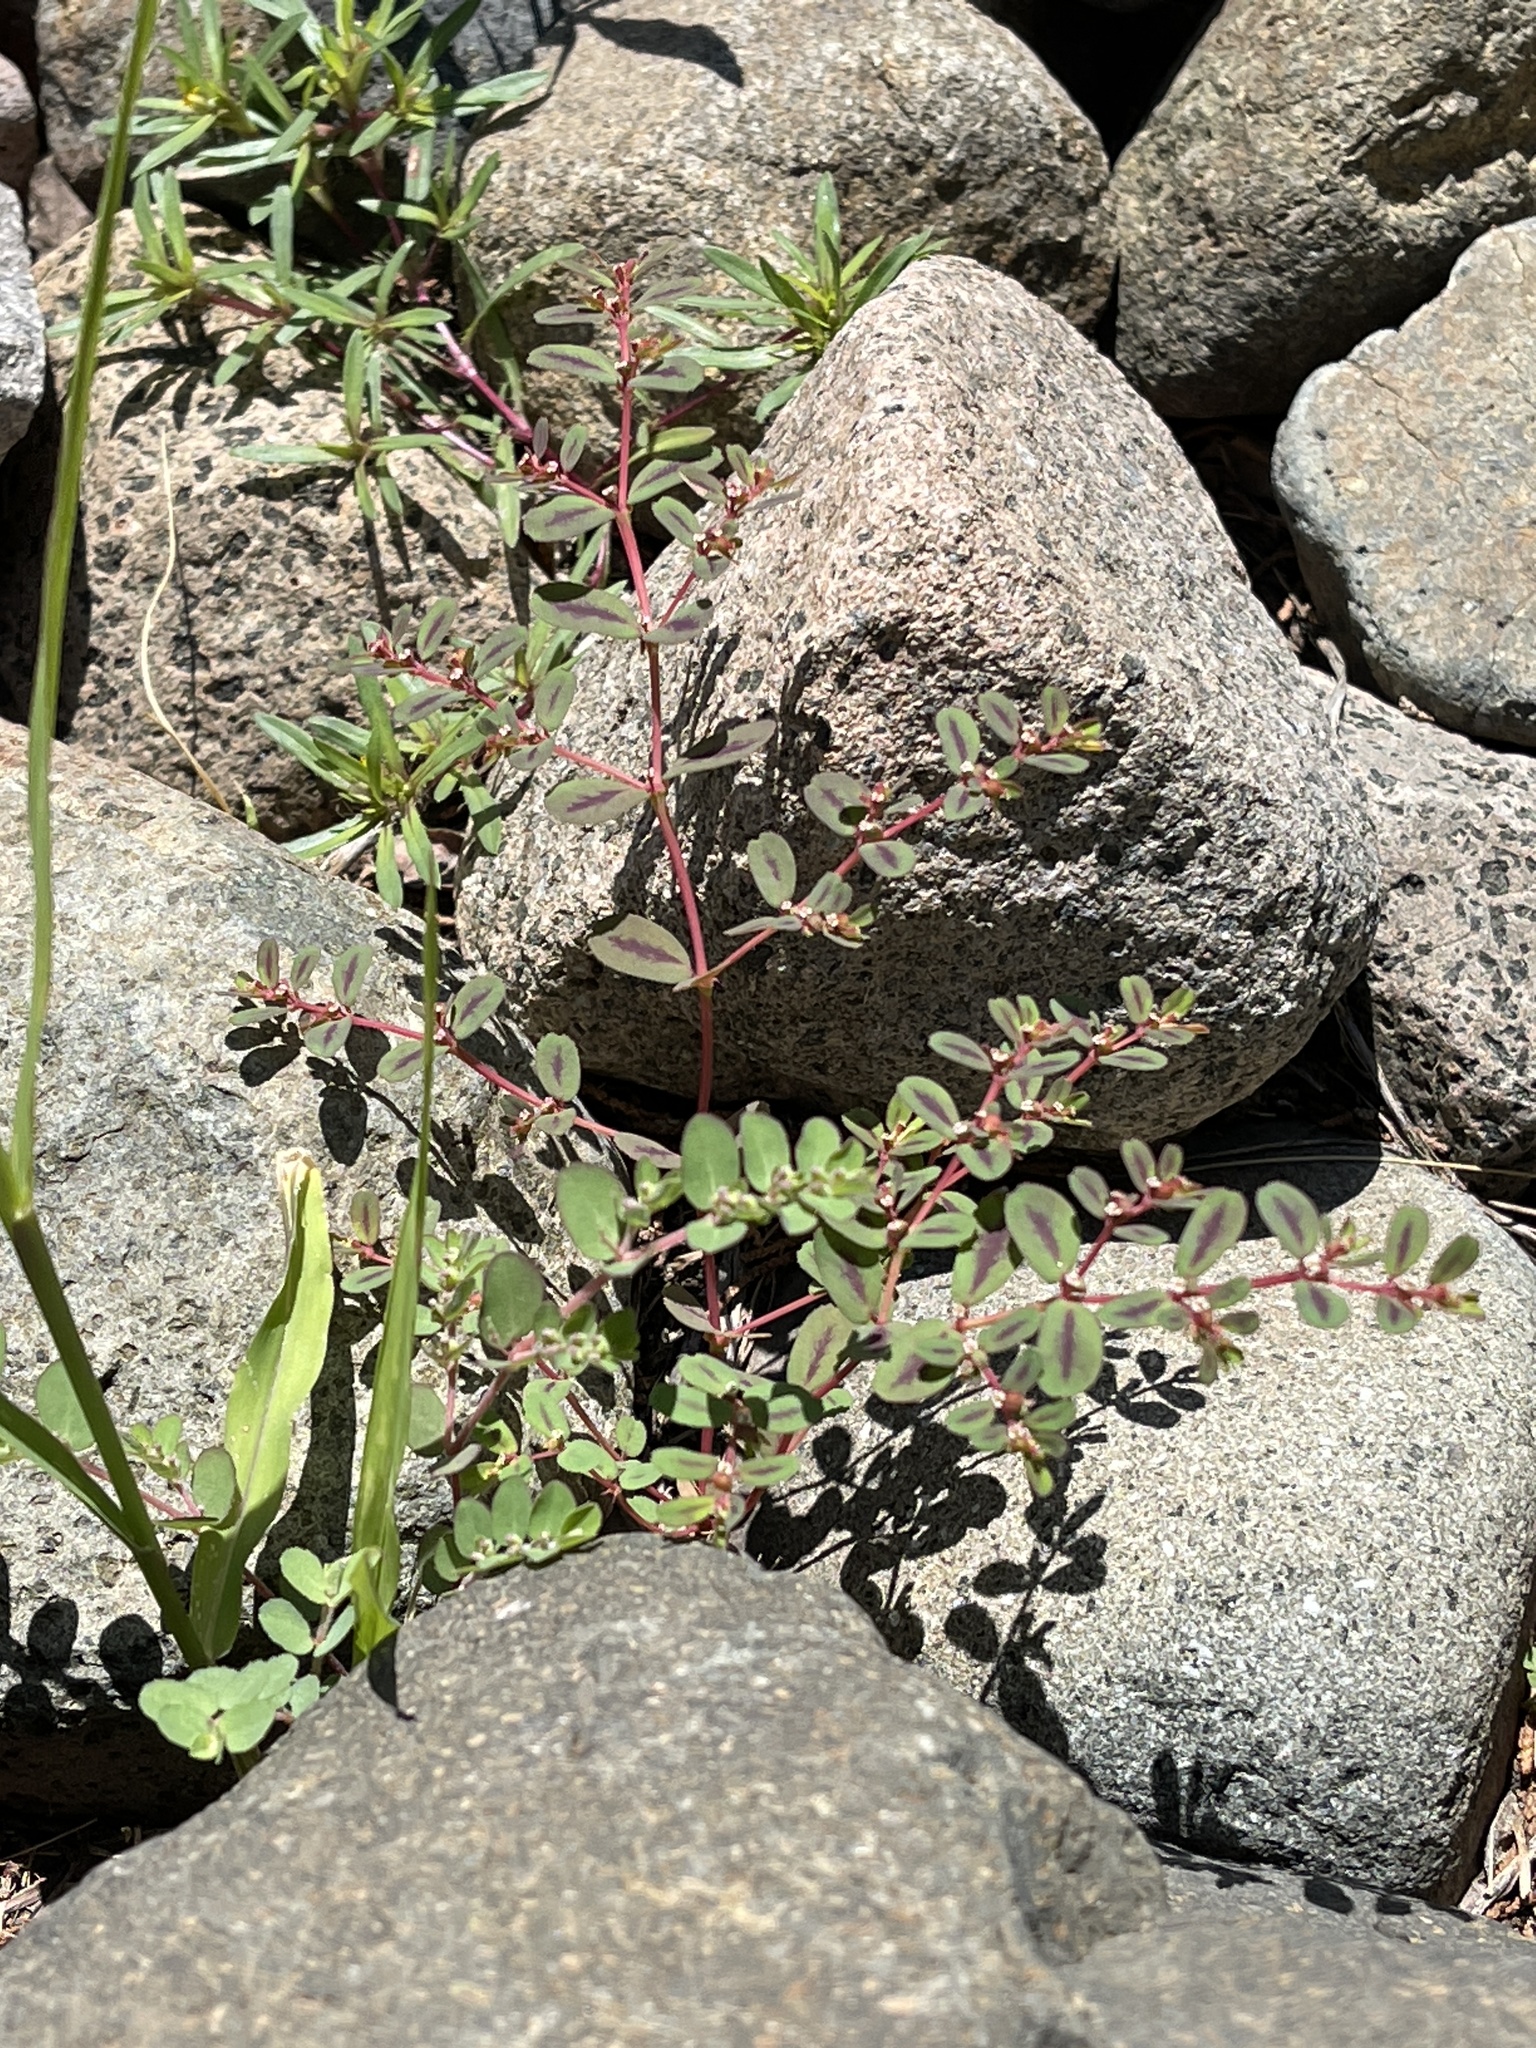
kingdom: Plantae
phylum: Tracheophyta
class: Magnoliopsida
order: Malpighiales
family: Euphorbiaceae
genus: Euphorbia
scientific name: Euphorbia serpillifolia
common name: Thyme-leaf spurge
